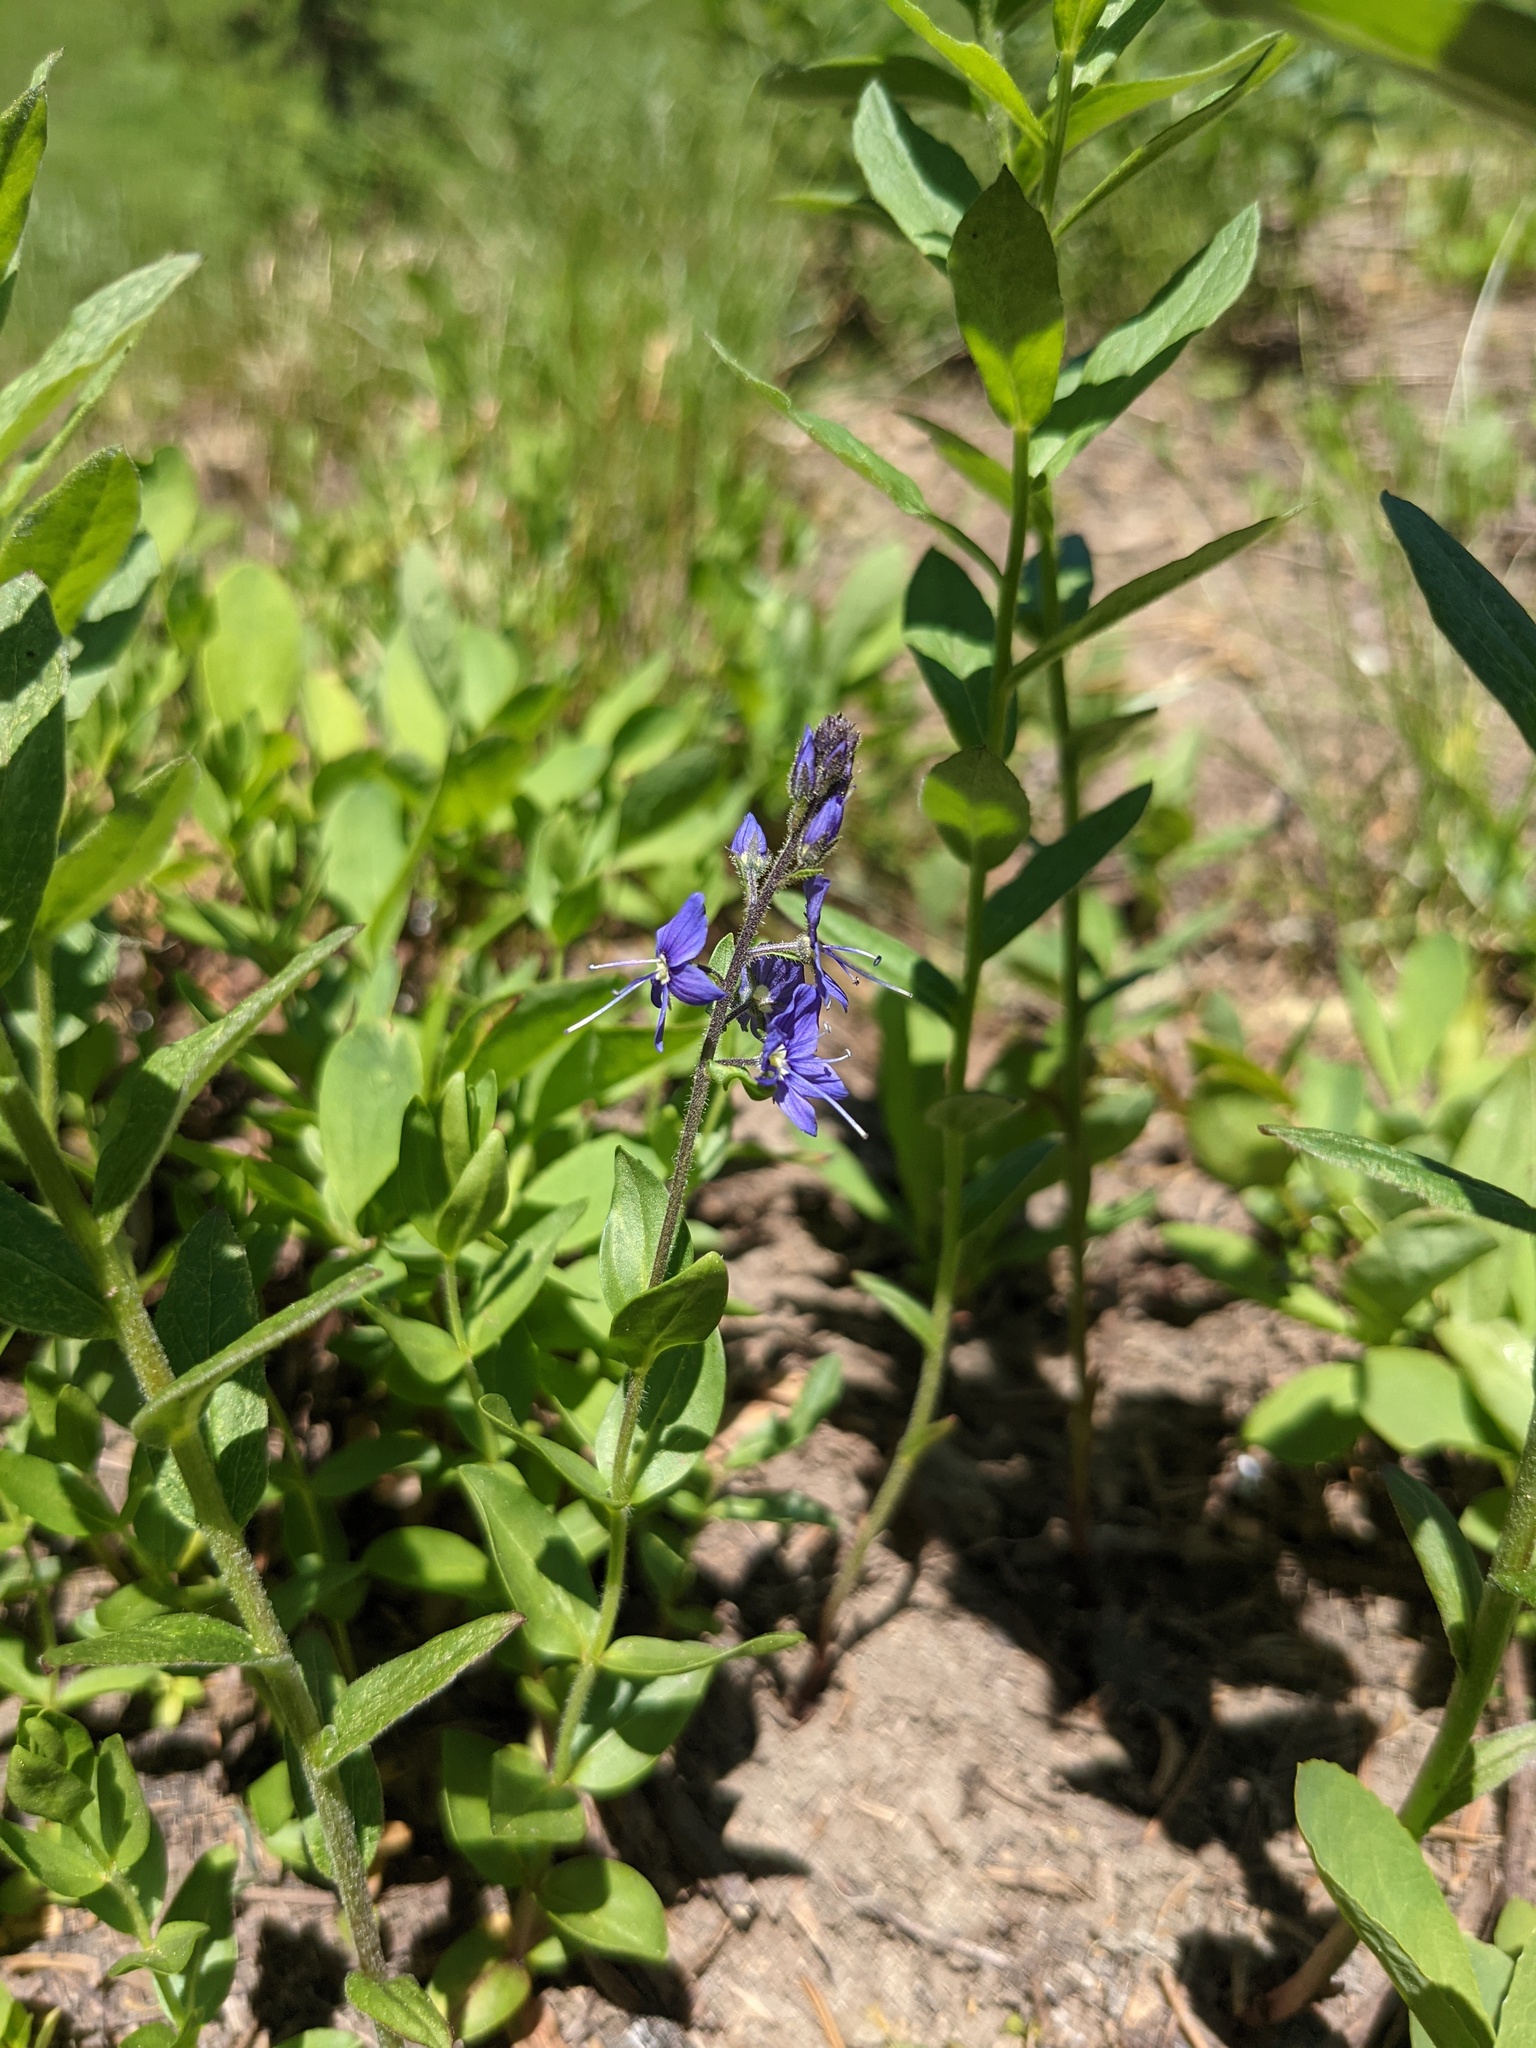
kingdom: Plantae
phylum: Tracheophyta
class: Magnoliopsida
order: Lamiales
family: Plantaginaceae
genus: Veronica
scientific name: Veronica cusickii
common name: Cusick's speedwell
